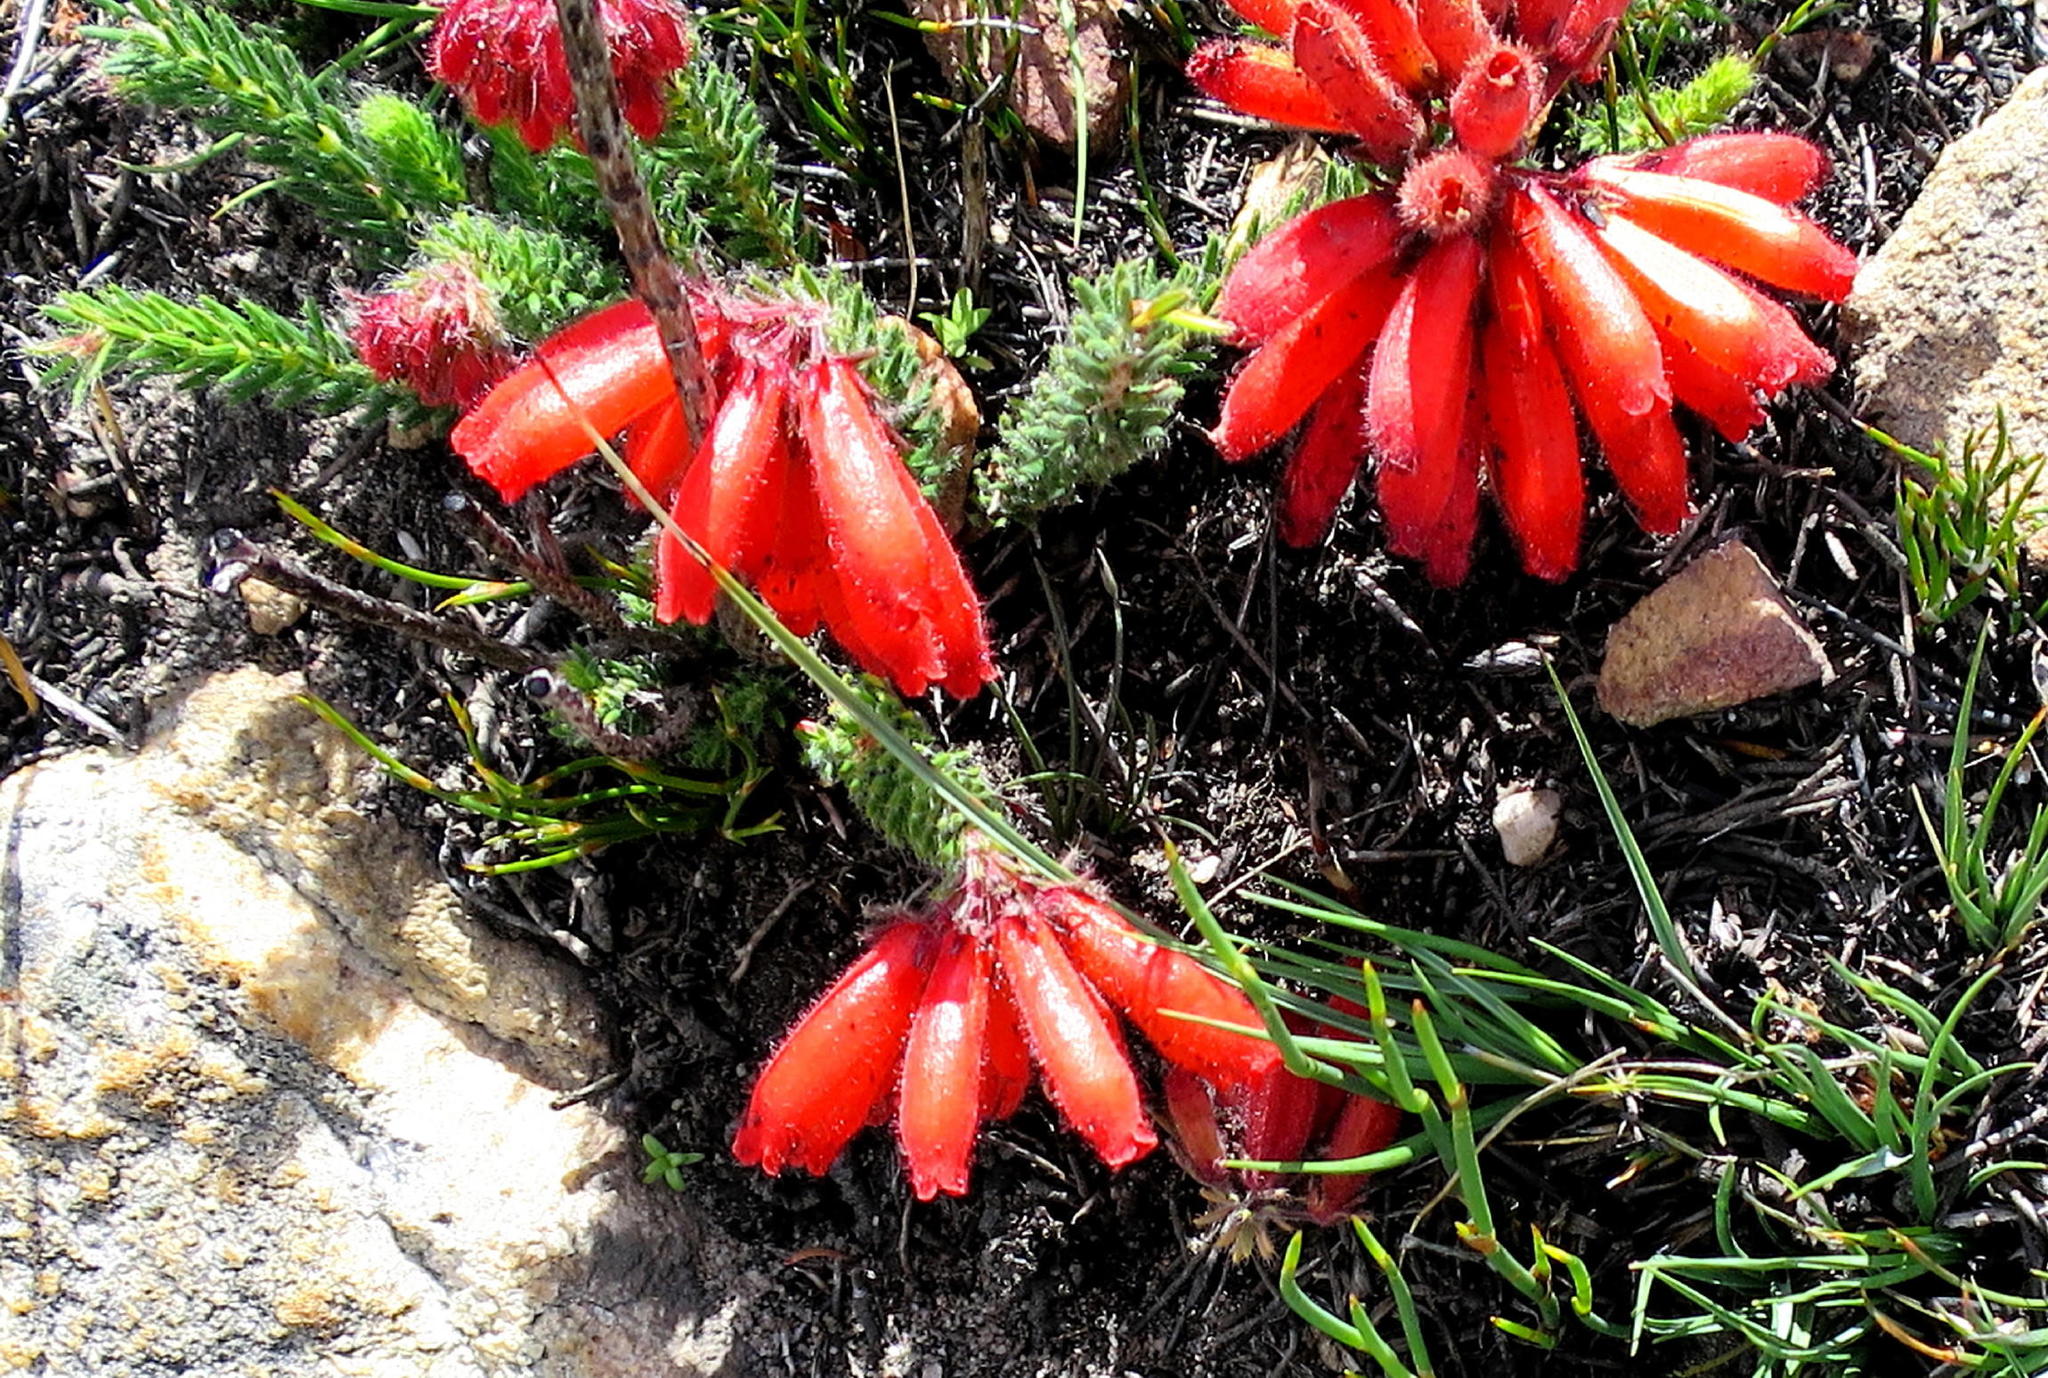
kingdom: Plantae
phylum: Tracheophyta
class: Magnoliopsida
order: Ericales
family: Ericaceae
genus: Erica
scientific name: Erica cerinthoides
